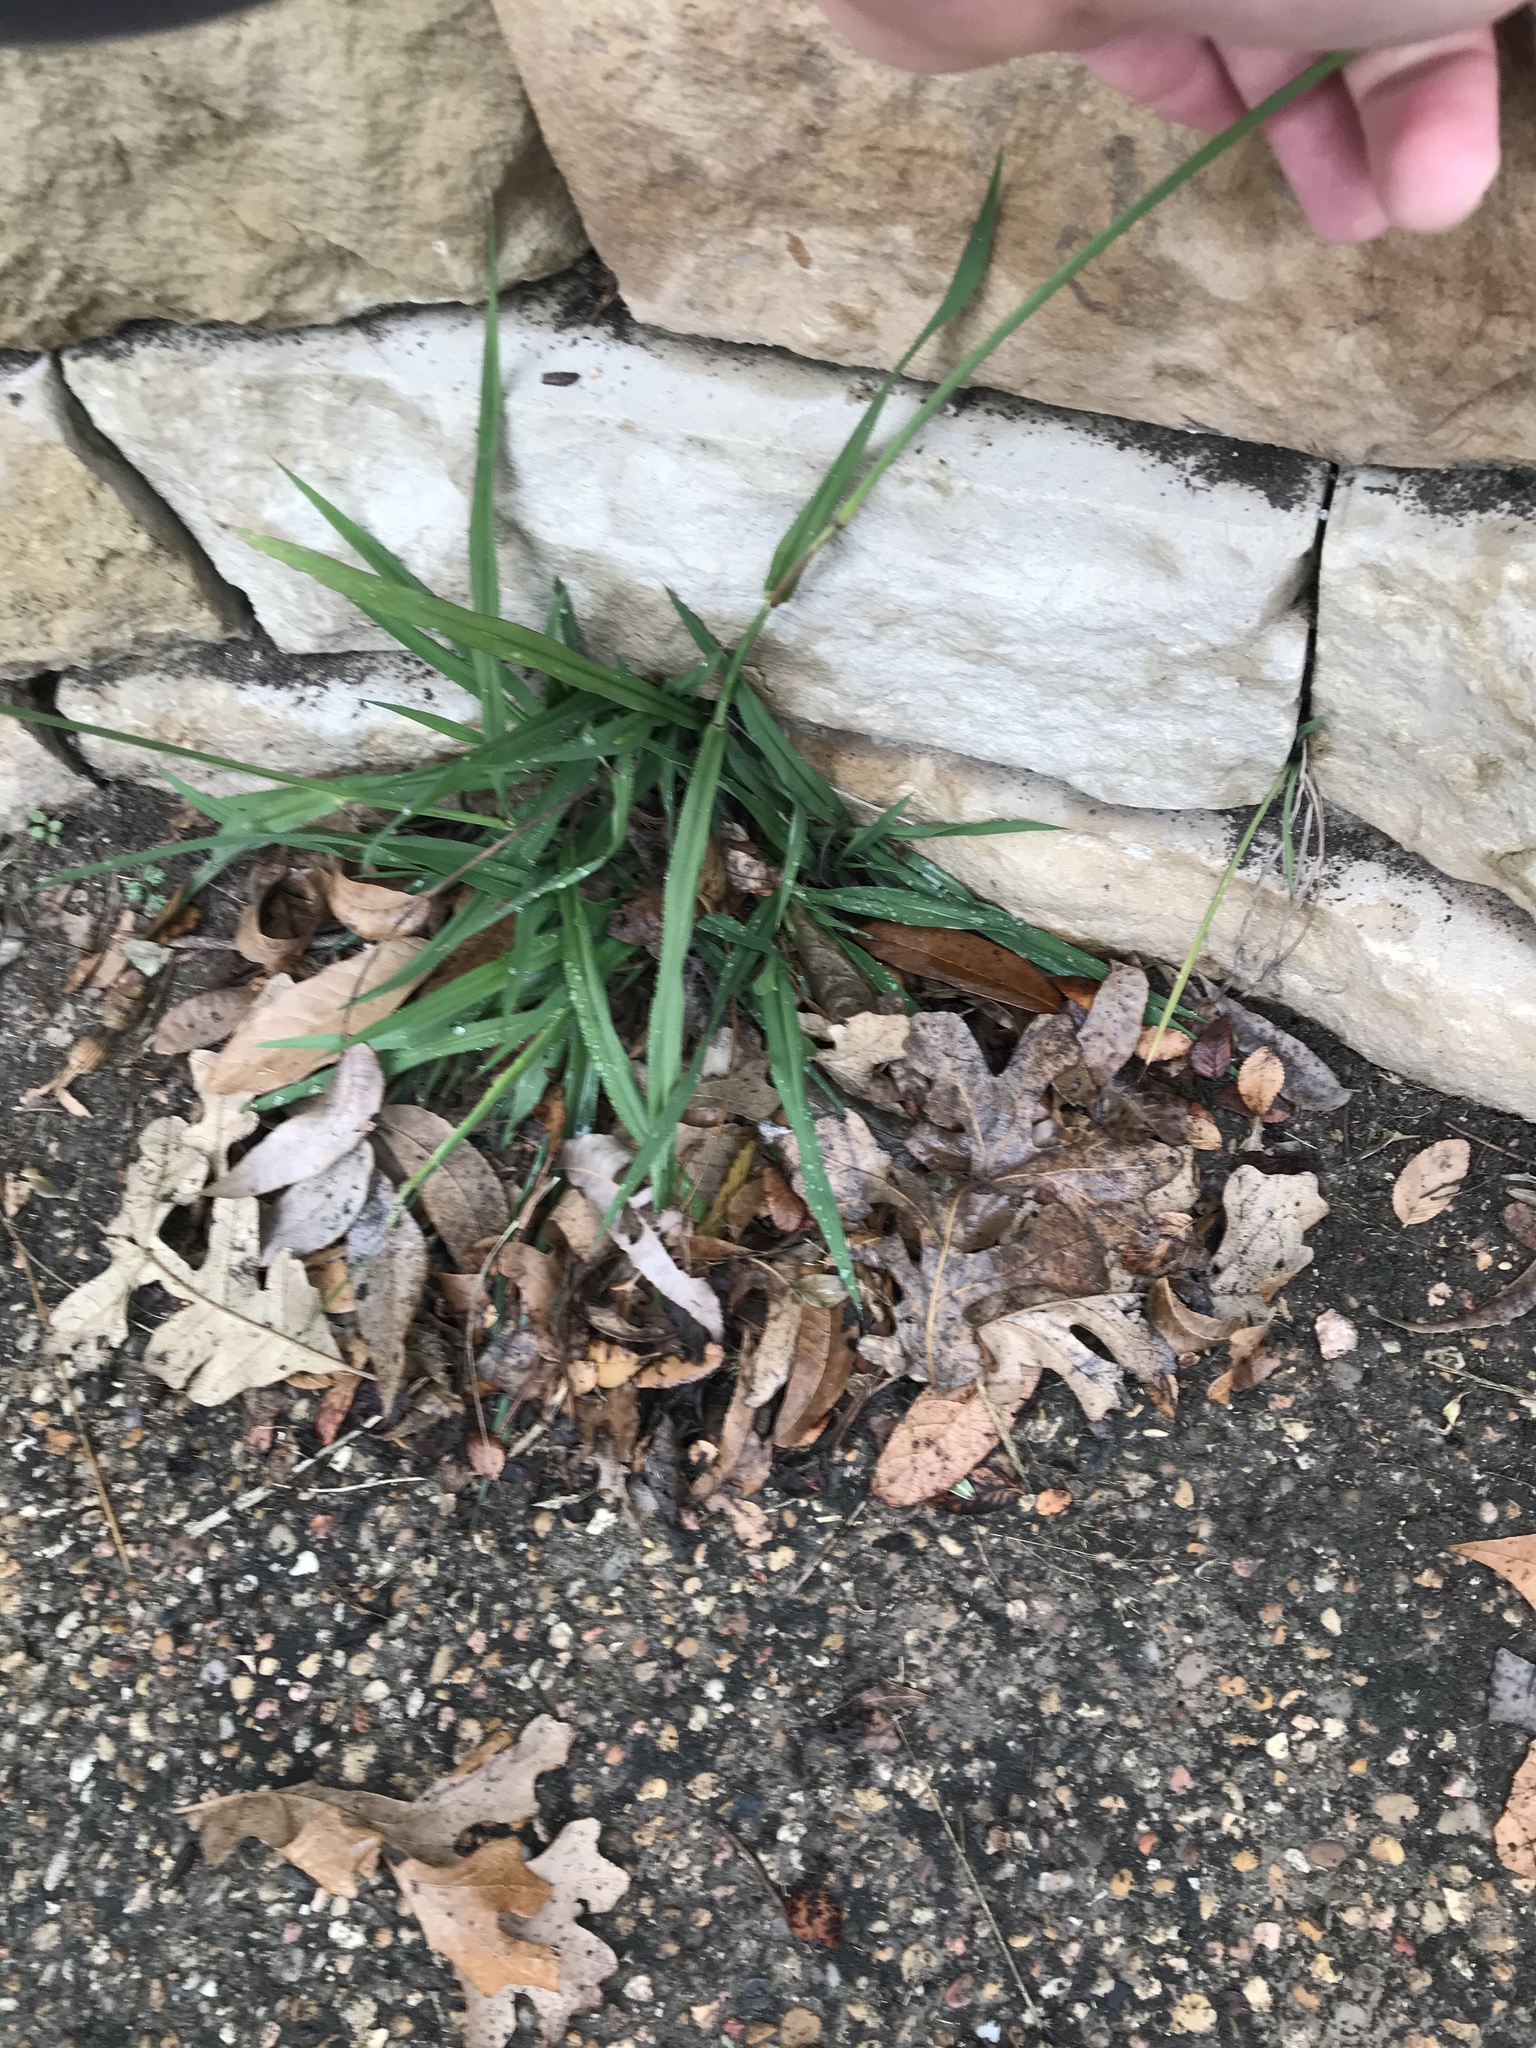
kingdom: Plantae
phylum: Tracheophyta
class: Liliopsida
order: Poales
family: Poaceae
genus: Paspalum
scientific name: Paspalum urvillei
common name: Vasey's grass
